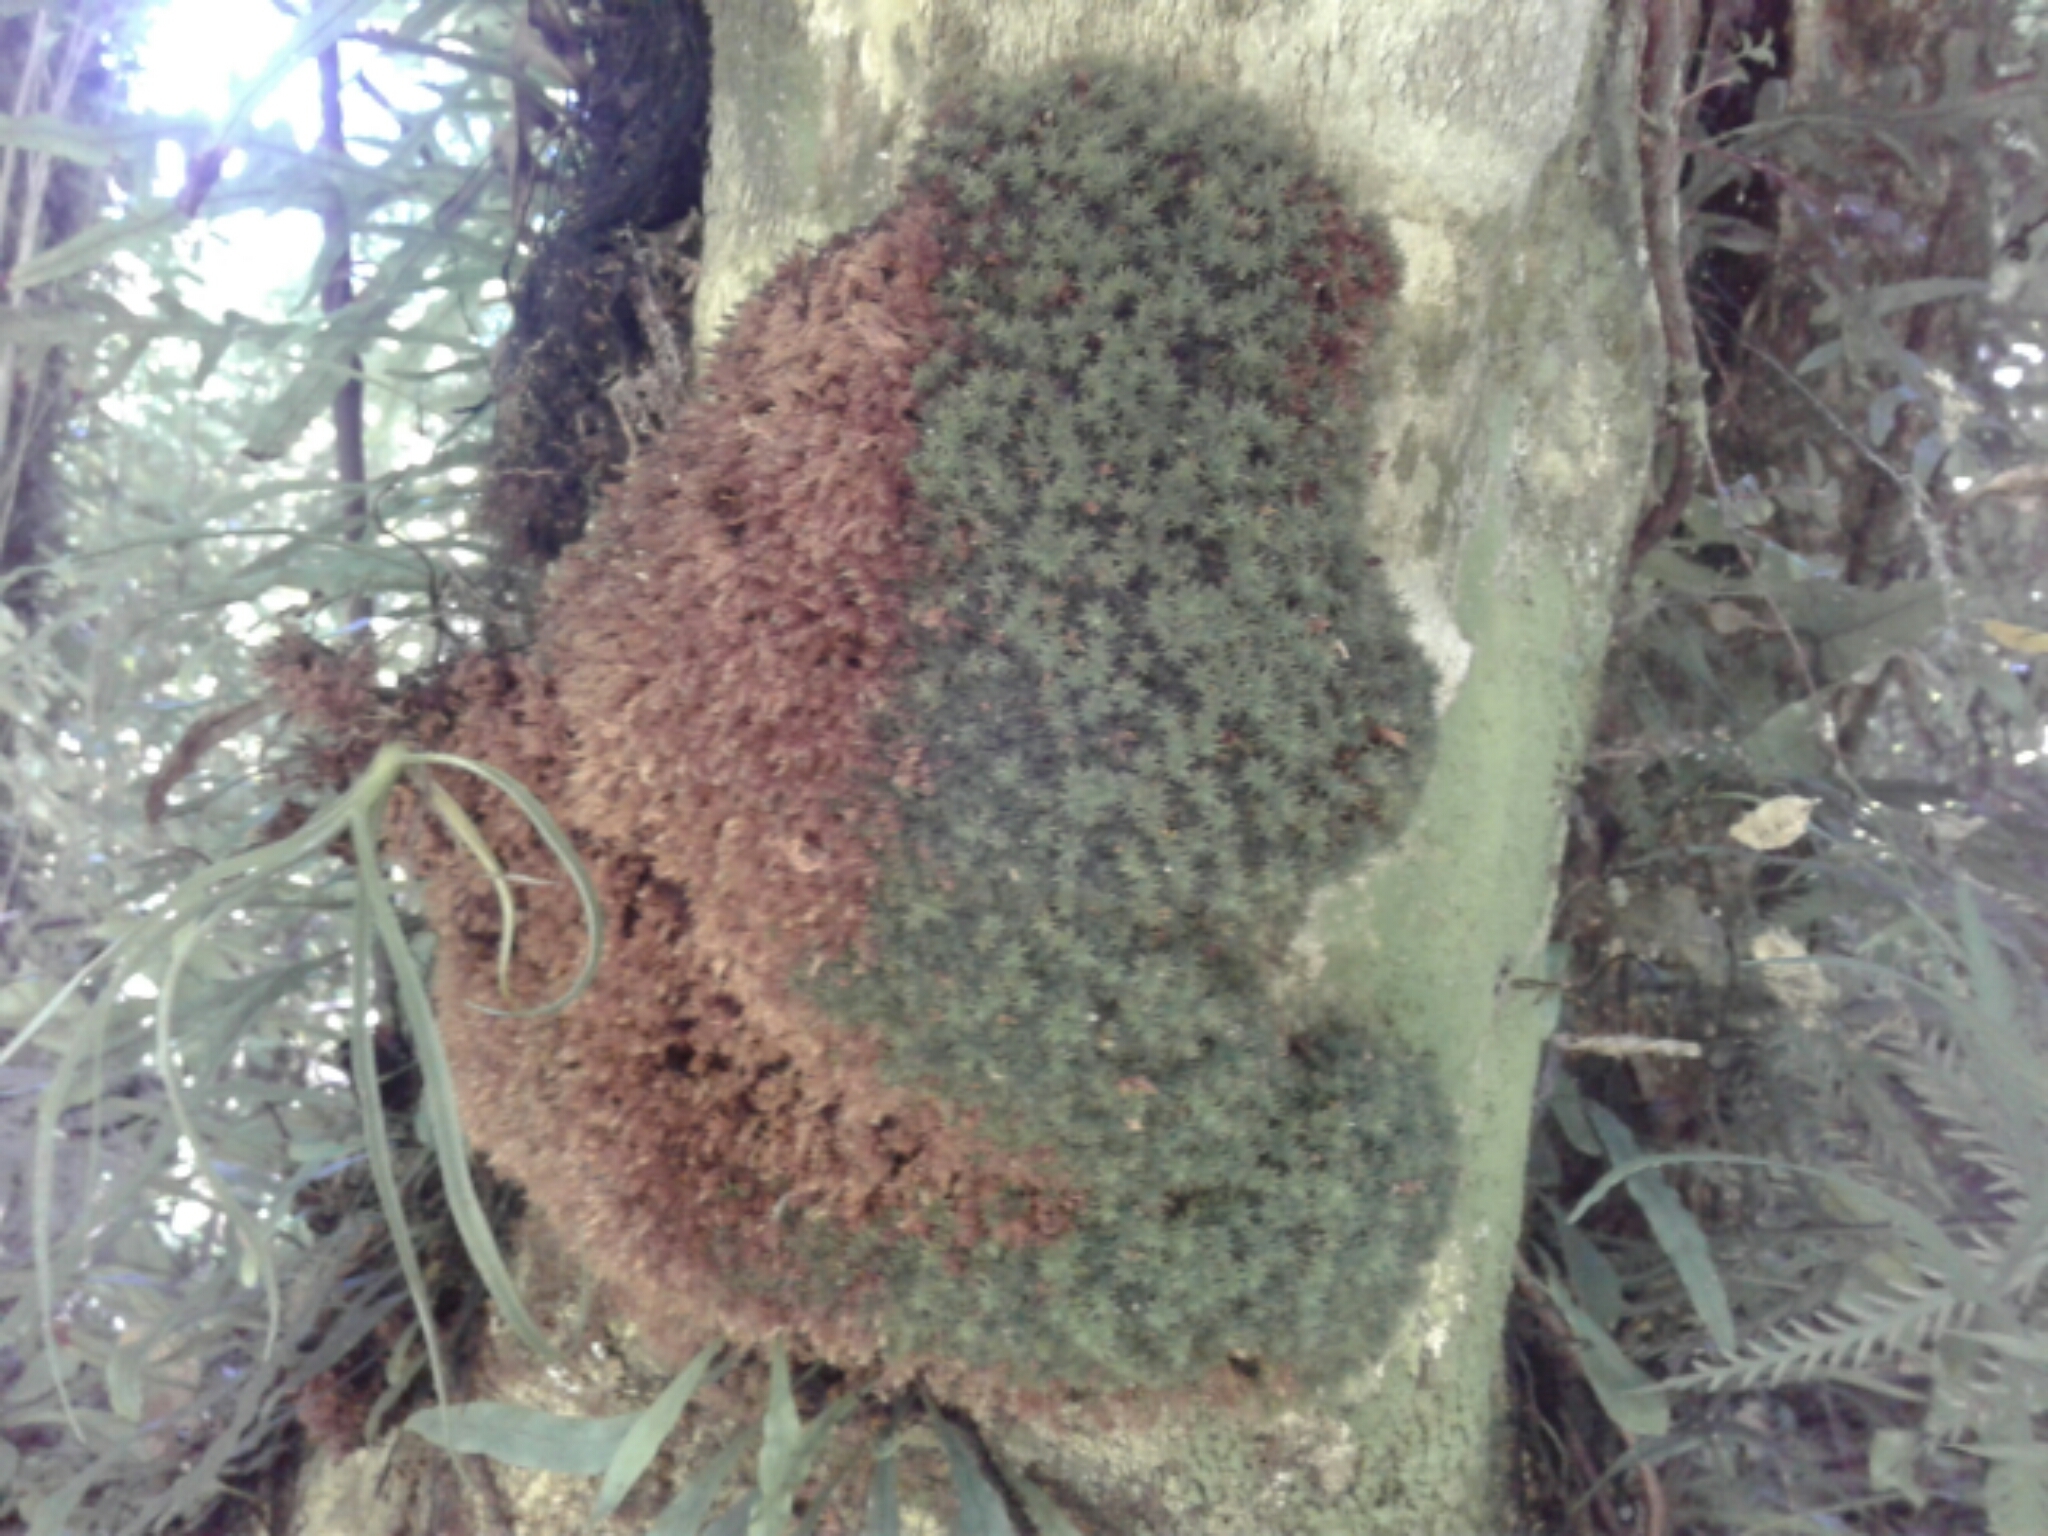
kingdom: Plantae
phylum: Bryophyta
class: Bryopsida
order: Bryales
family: Leptostomataceae
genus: Leptostomum
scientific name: Leptostomum macrocarpon
